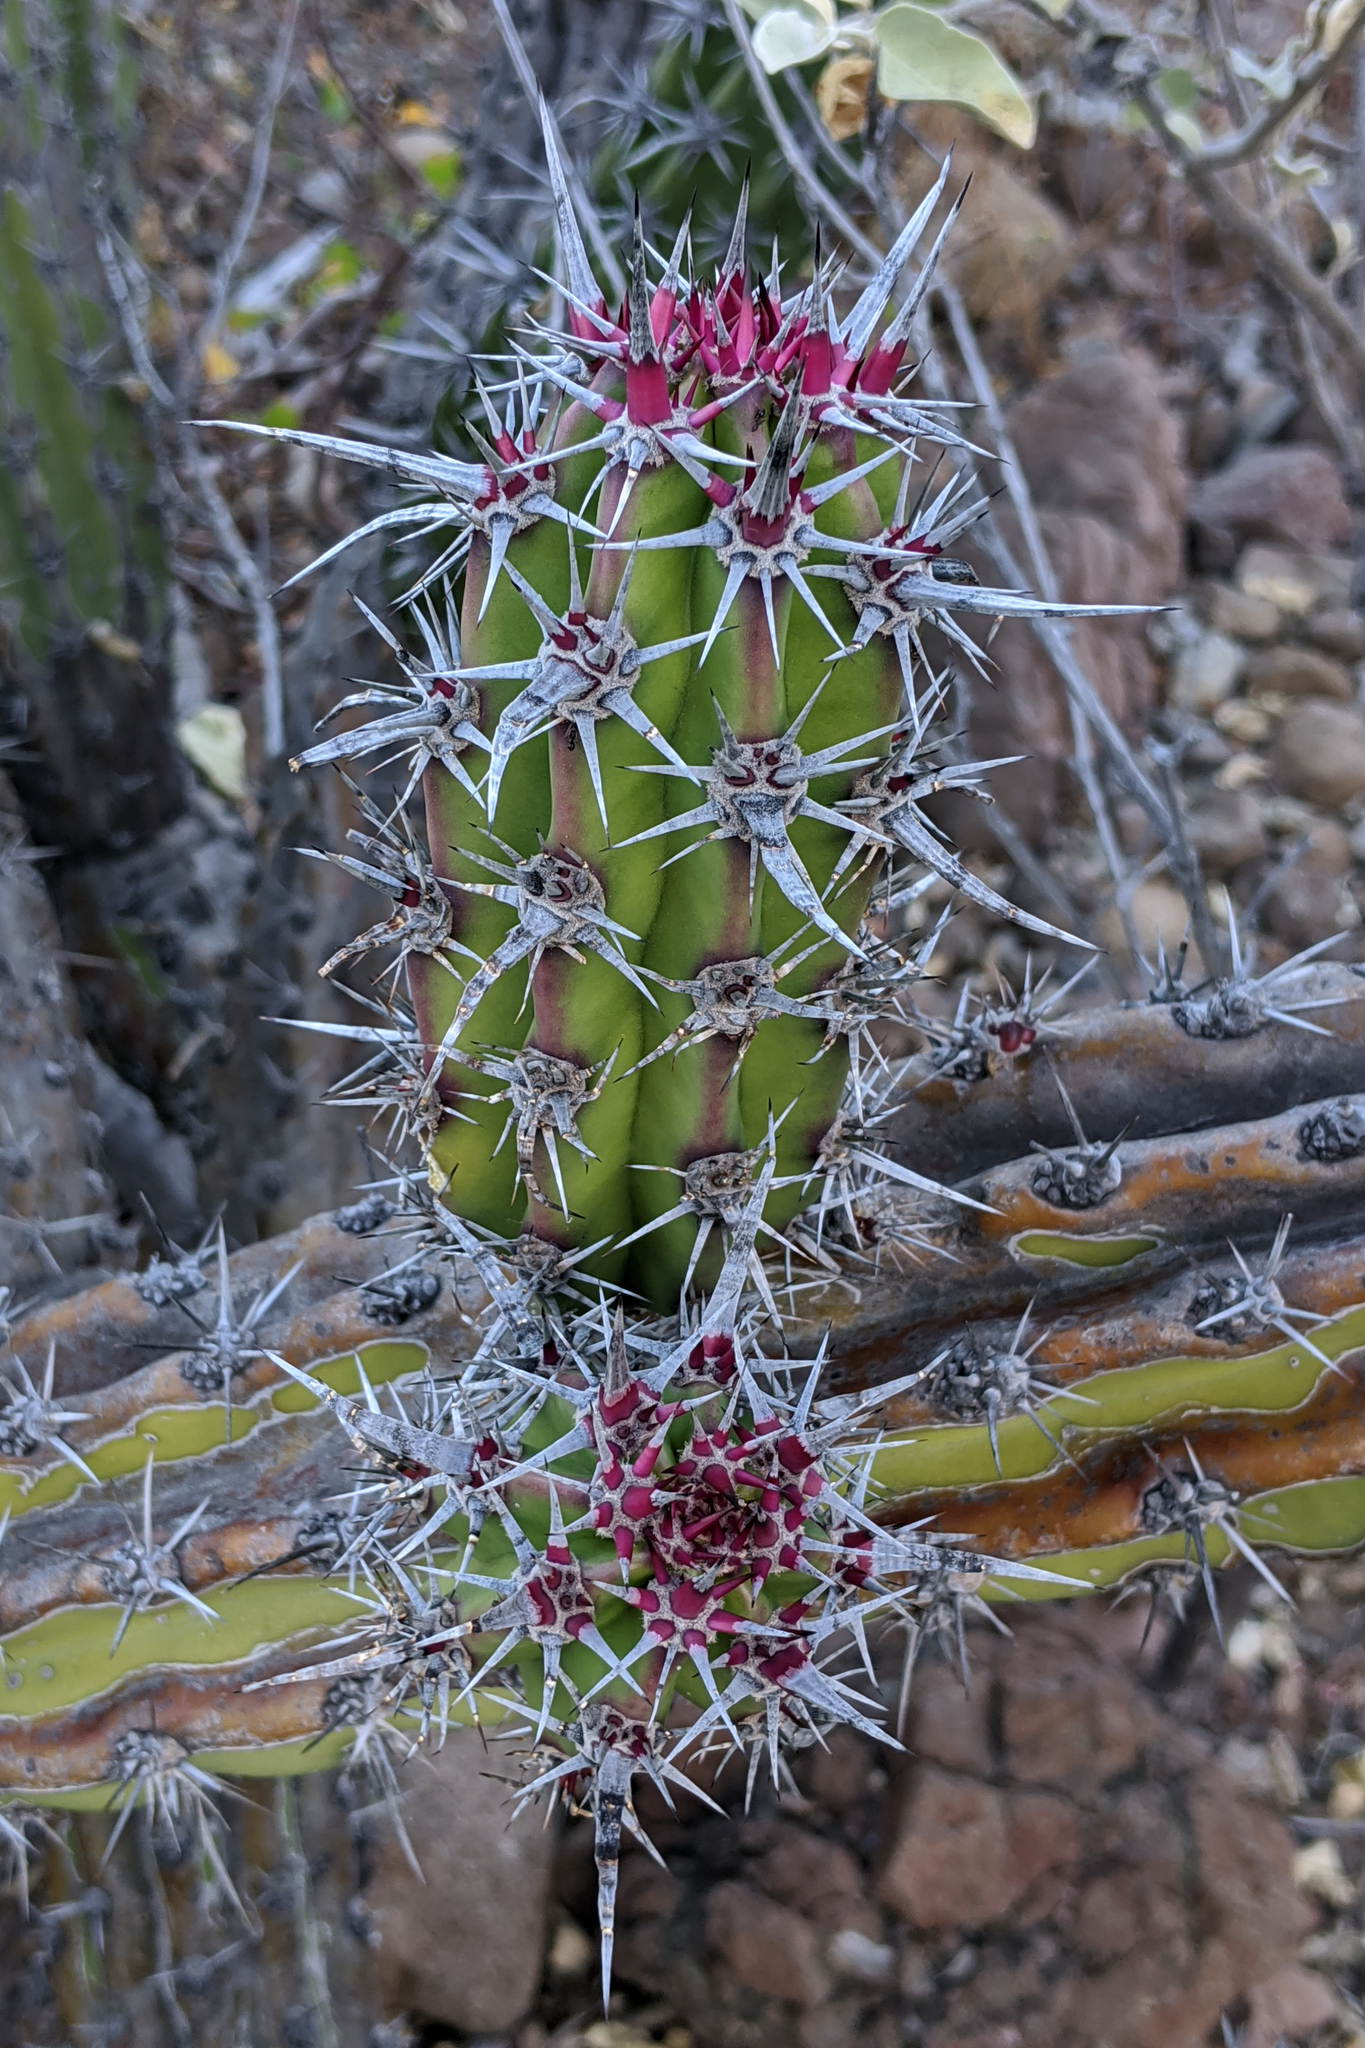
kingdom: Plantae
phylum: Tracheophyta
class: Magnoliopsida
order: Caryophyllales
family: Cactaceae
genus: Stenocereus
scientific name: Stenocereus gummosus
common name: Dagger cactus
